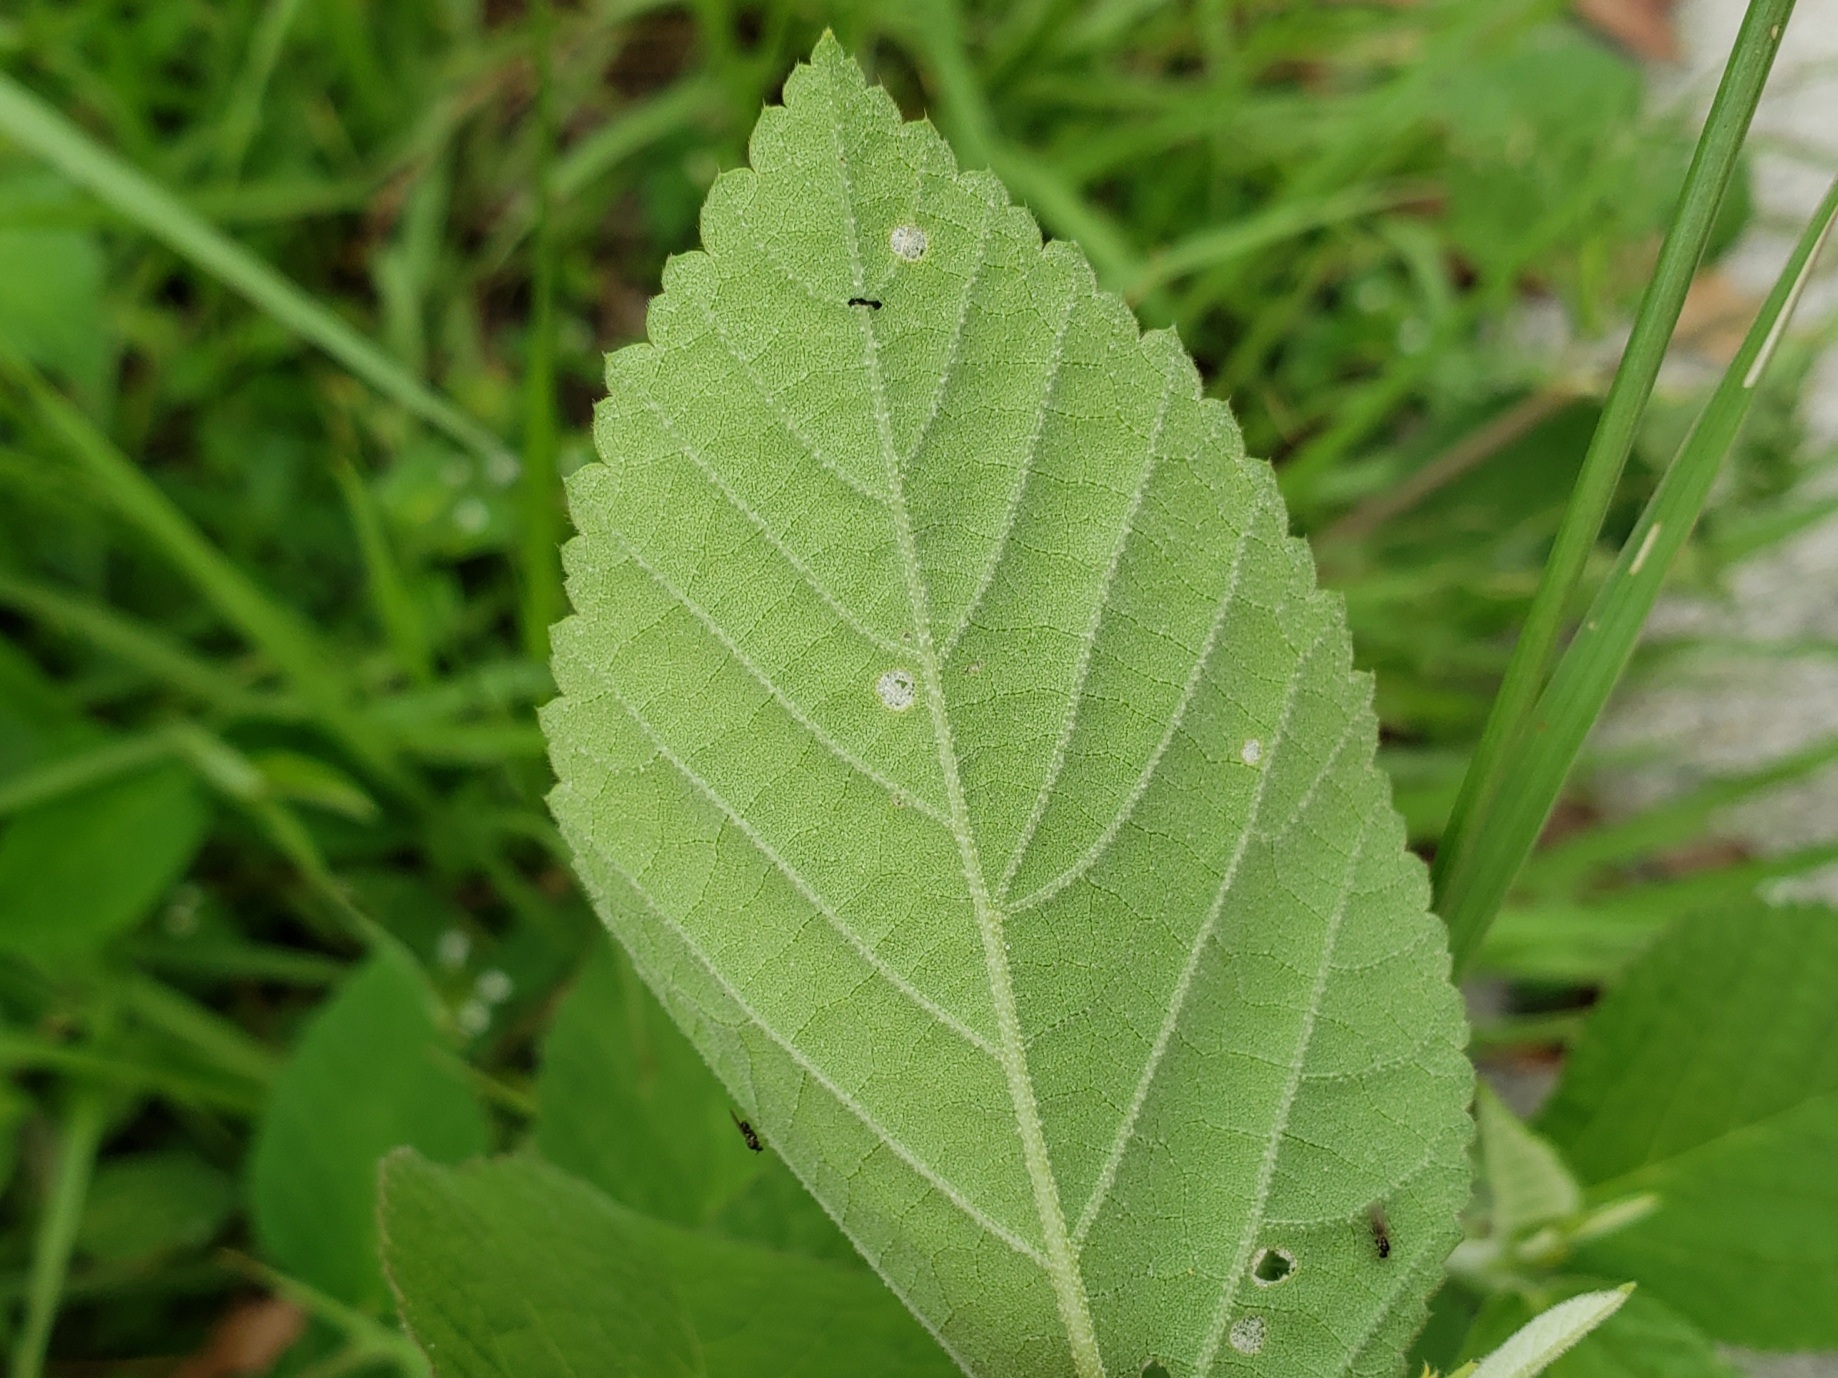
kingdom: Plantae
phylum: Tracheophyta
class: Magnoliopsida
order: Malvales
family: Malvaceae
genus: Sida
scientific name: Sida cordifolia
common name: Ilima
